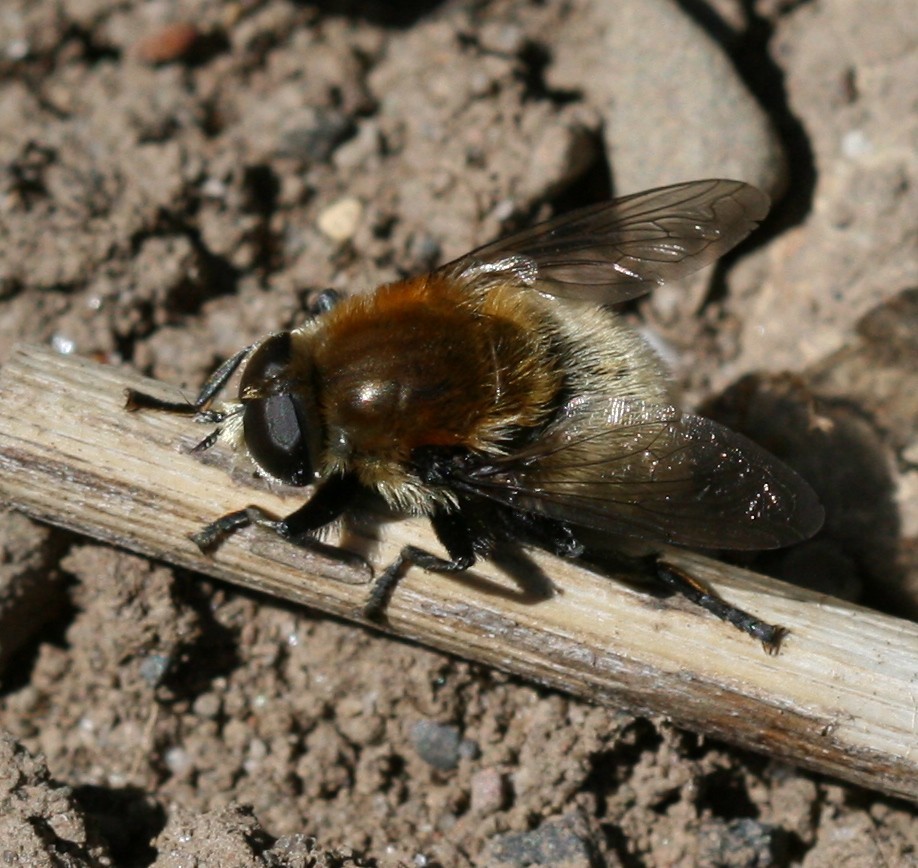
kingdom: Animalia
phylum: Arthropoda
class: Insecta
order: Diptera
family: Syrphidae
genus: Merodon
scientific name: Merodon equestris
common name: Greater bulb-fly
